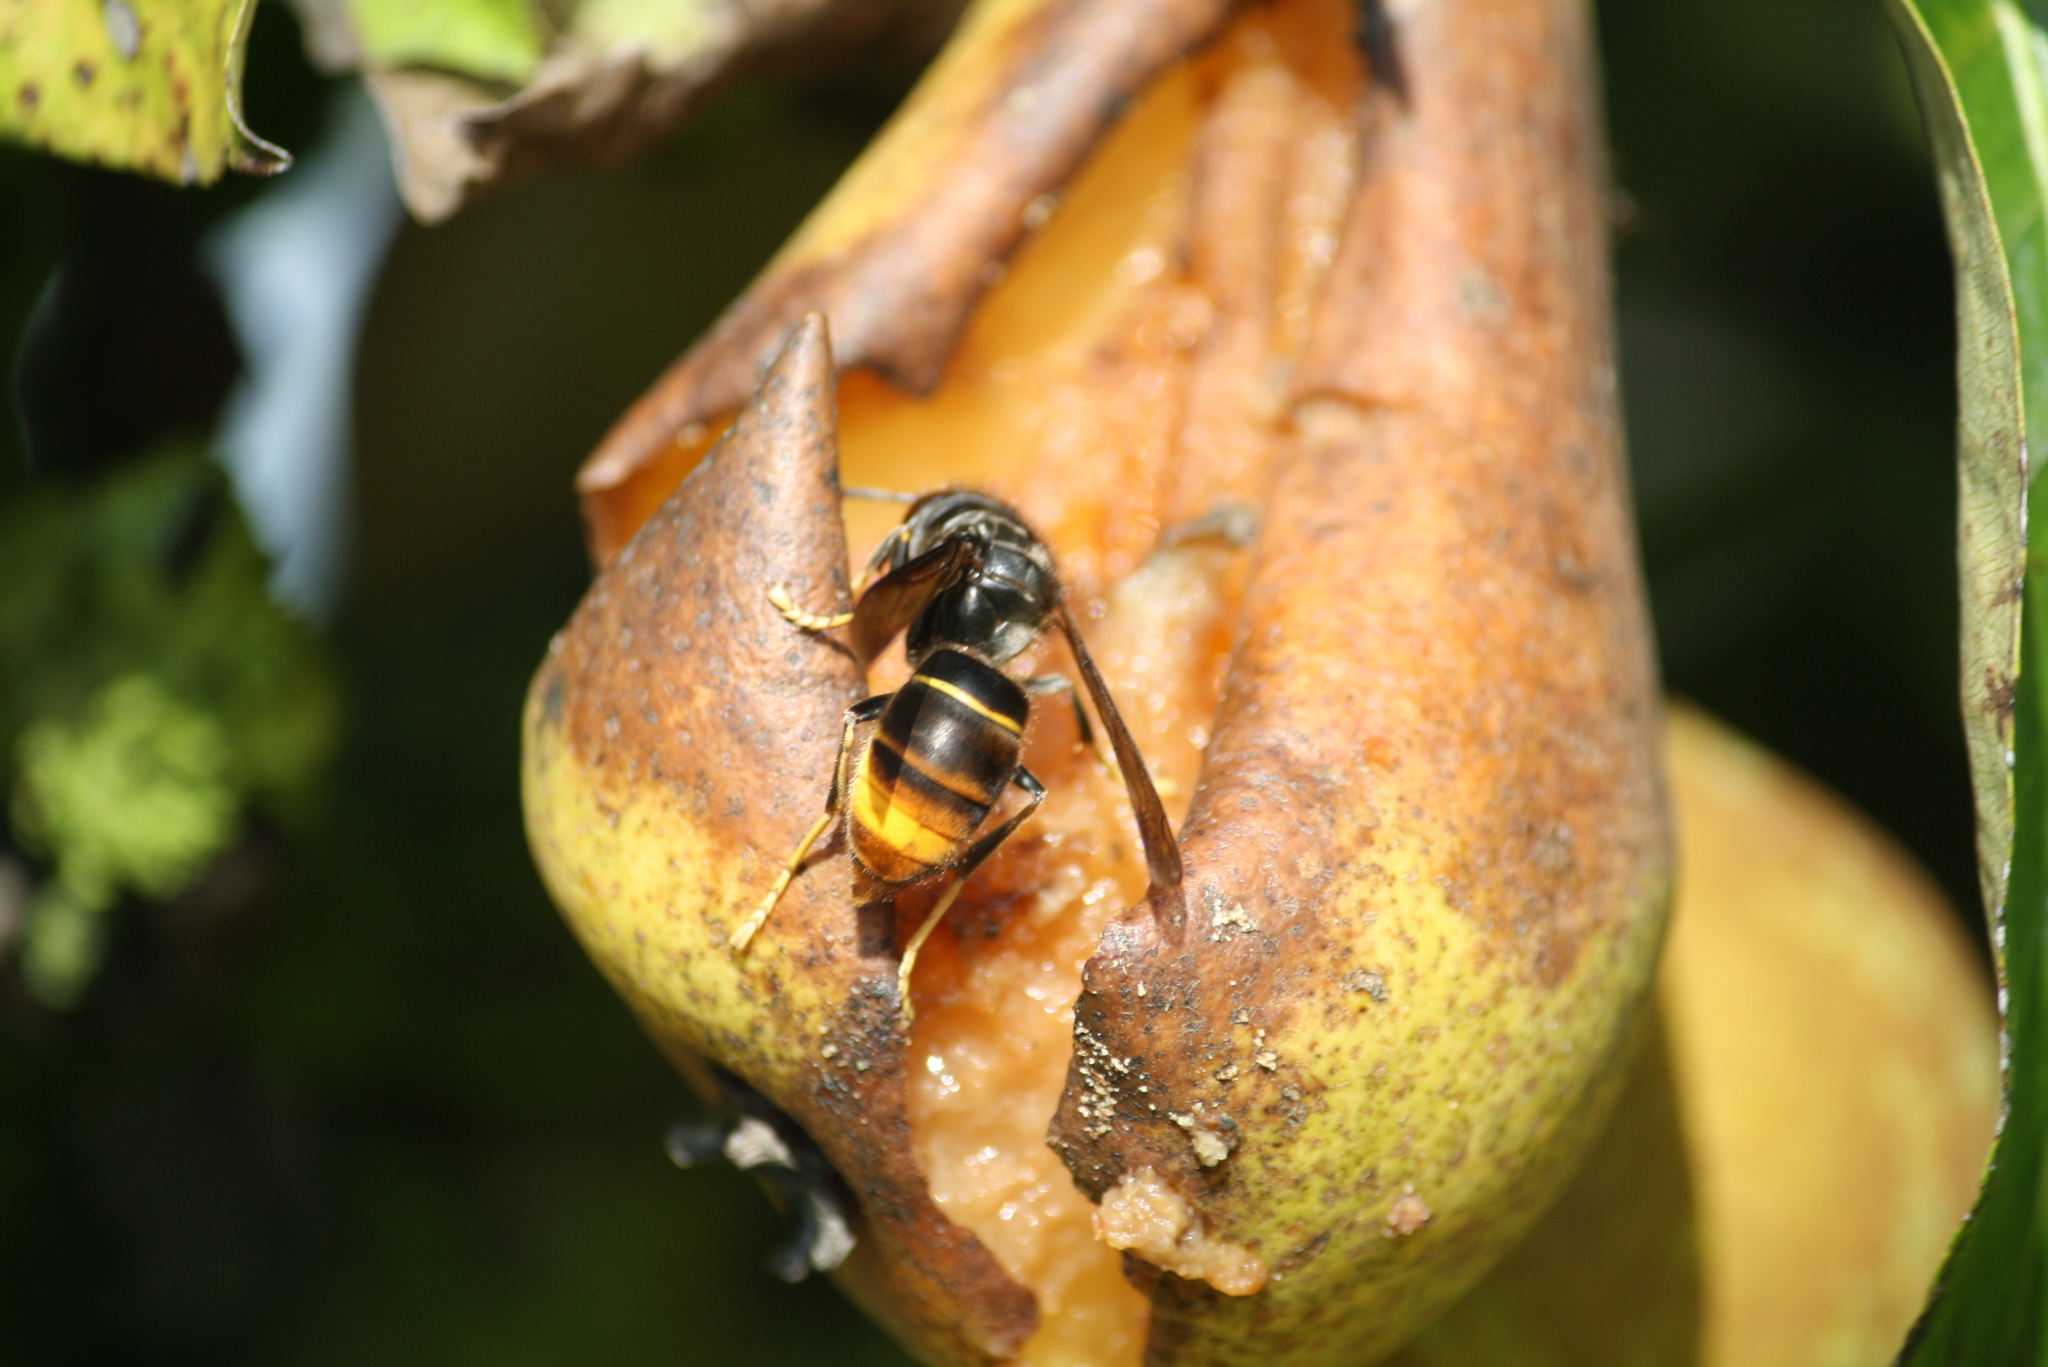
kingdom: Animalia
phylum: Arthropoda
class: Insecta
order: Hymenoptera
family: Vespidae
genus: Vespa
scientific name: Vespa velutina
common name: Asian hornet
